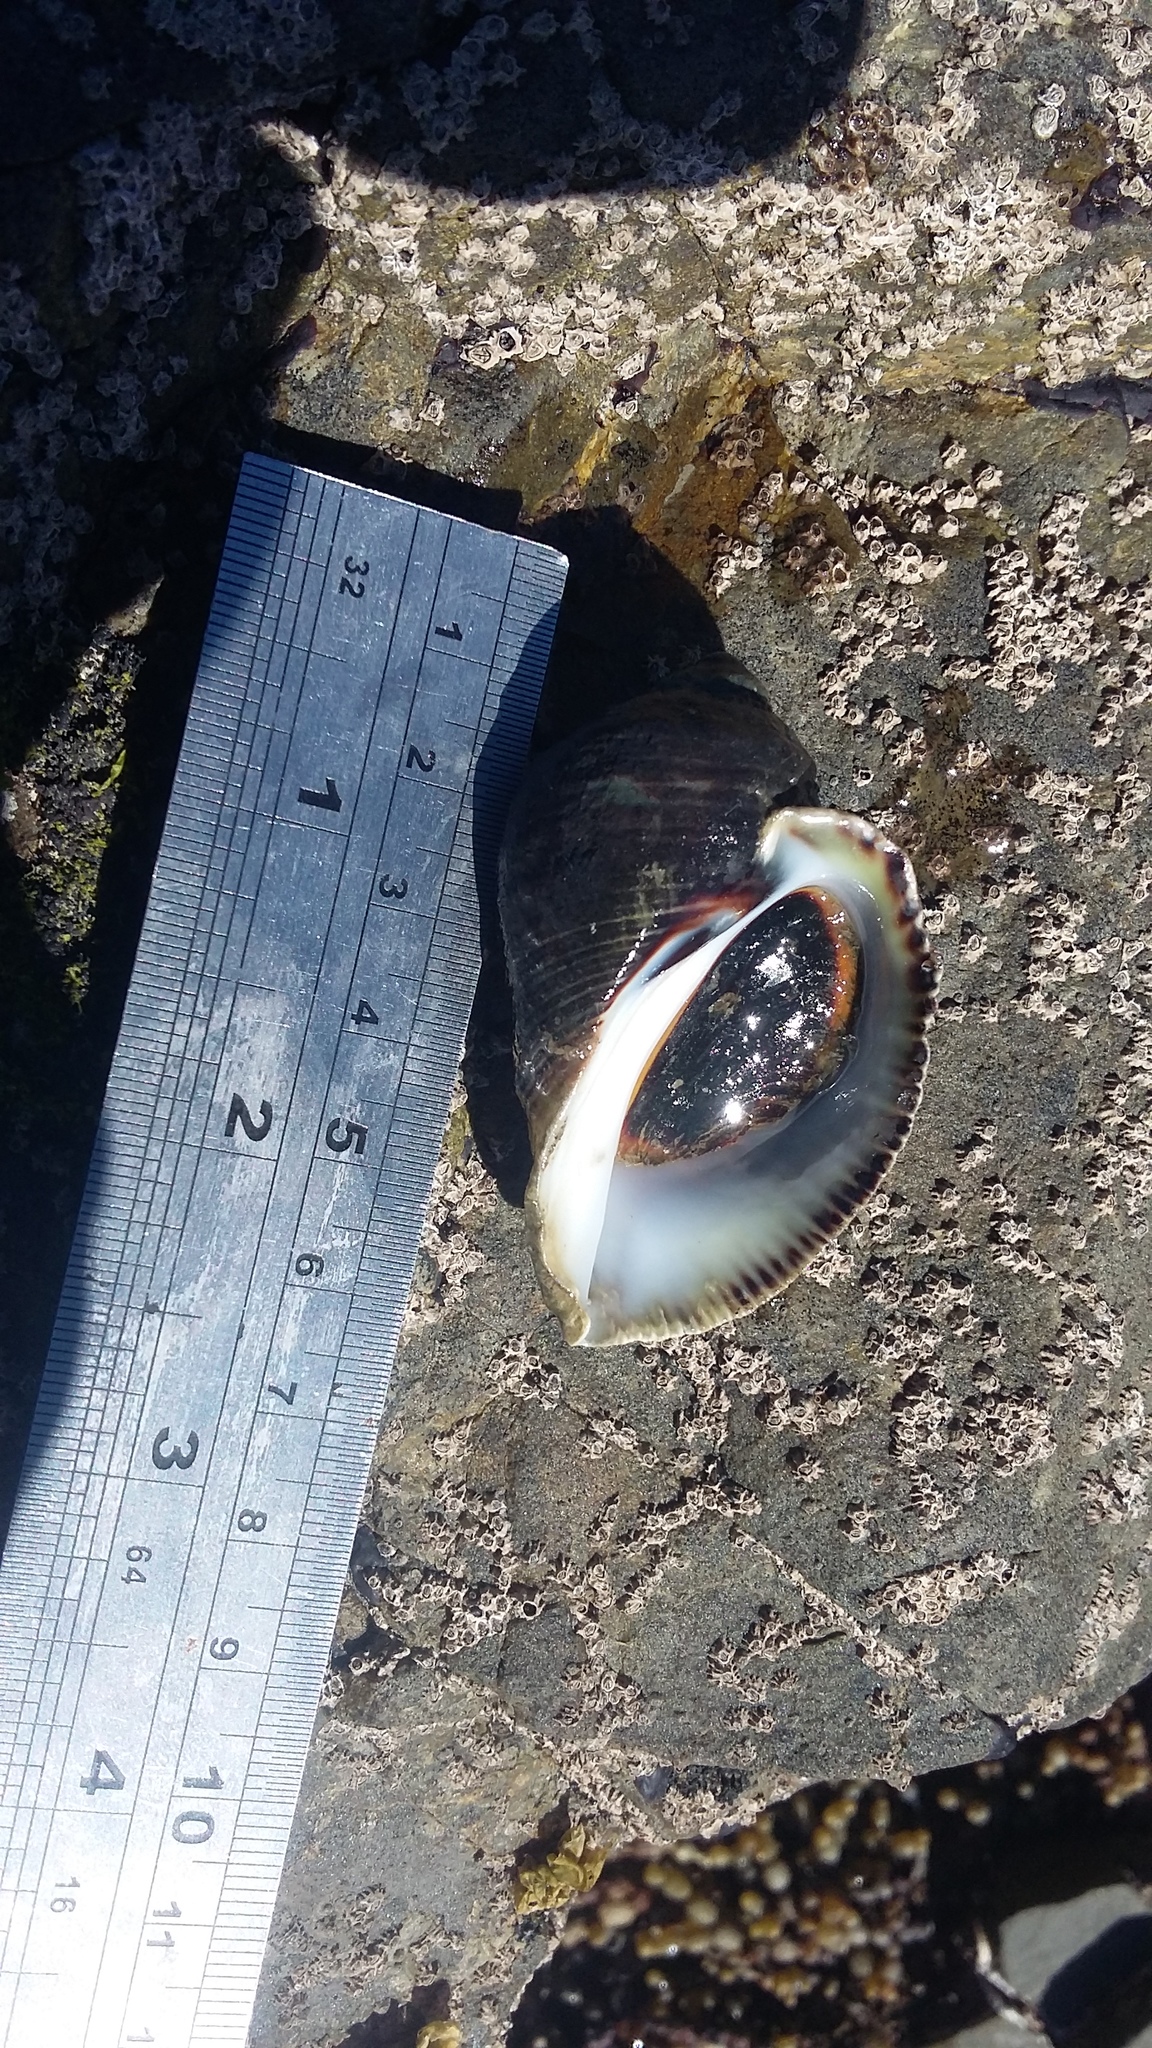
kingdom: Animalia
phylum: Mollusca
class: Gastropoda
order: Neogastropoda
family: Muricidae
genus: Haustrum
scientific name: Haustrum haustorium
